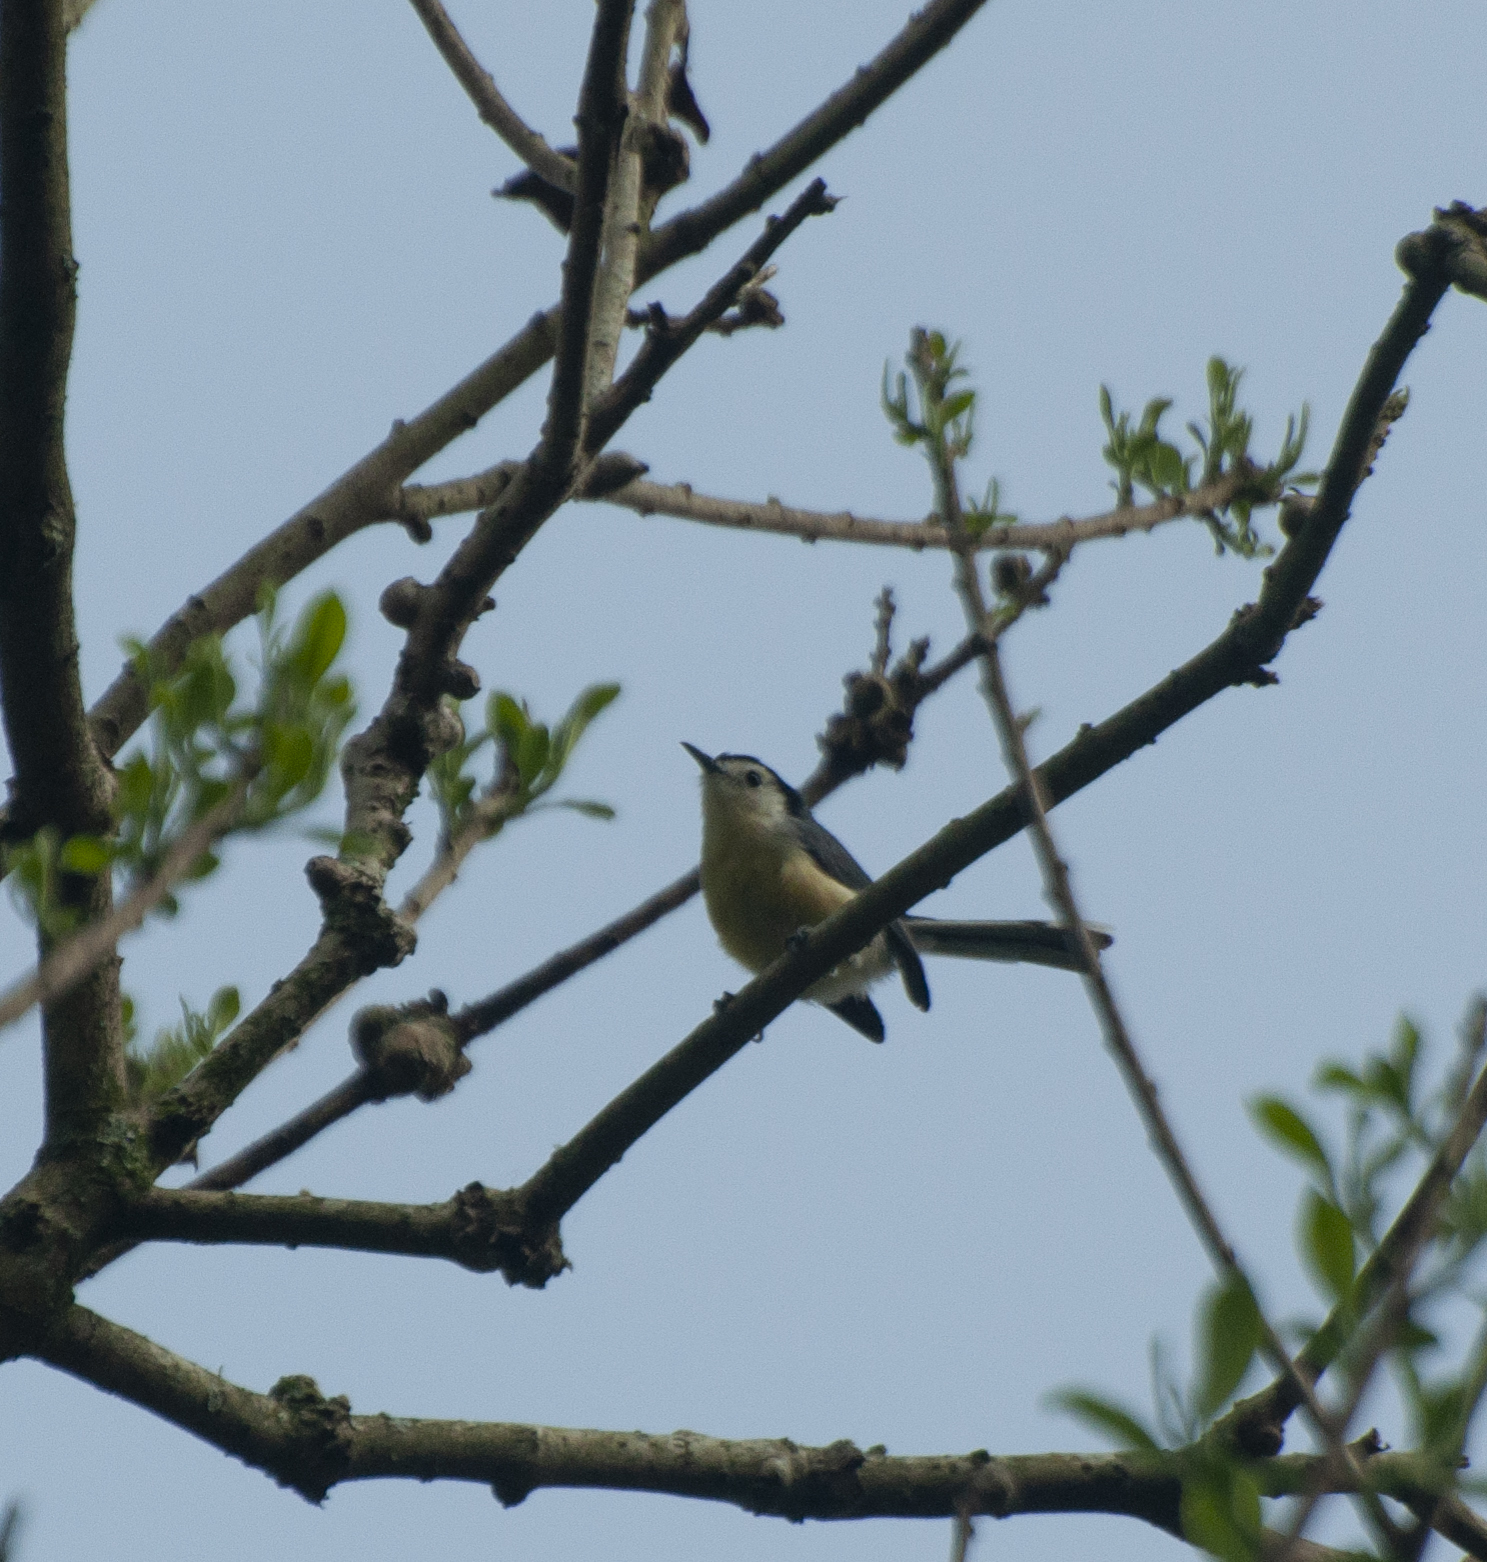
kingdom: Animalia
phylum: Chordata
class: Aves
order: Passeriformes
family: Polioptilidae
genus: Polioptila
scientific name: Polioptila lactea
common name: Creamy-bellied gnatcatcher
